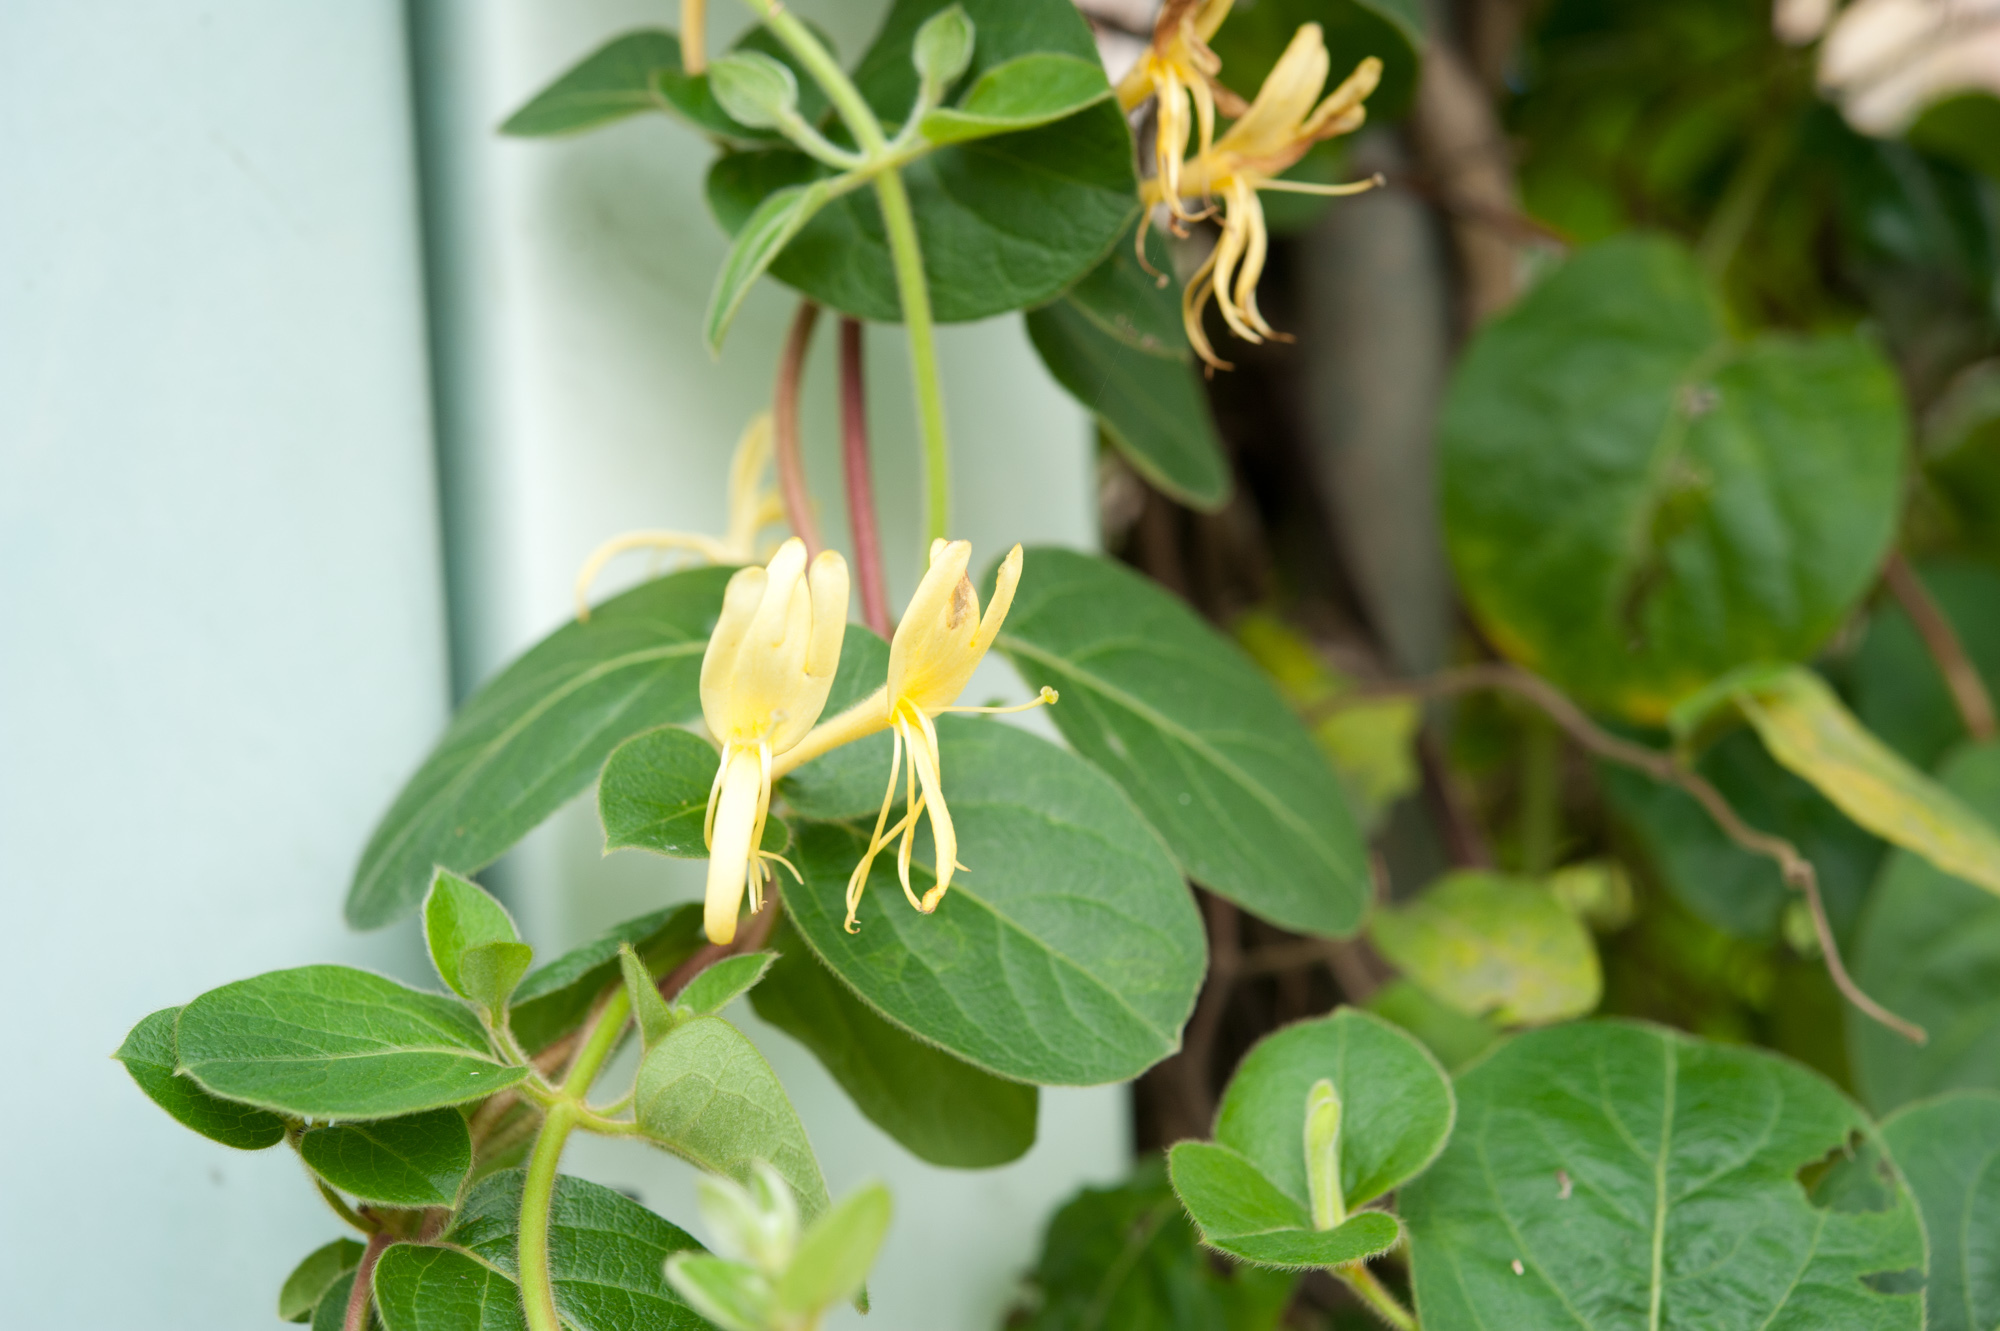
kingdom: Plantae
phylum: Tracheophyta
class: Magnoliopsida
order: Dipsacales
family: Caprifoliaceae
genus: Lonicera
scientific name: Lonicera japonica
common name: Japanese honeysuckle
